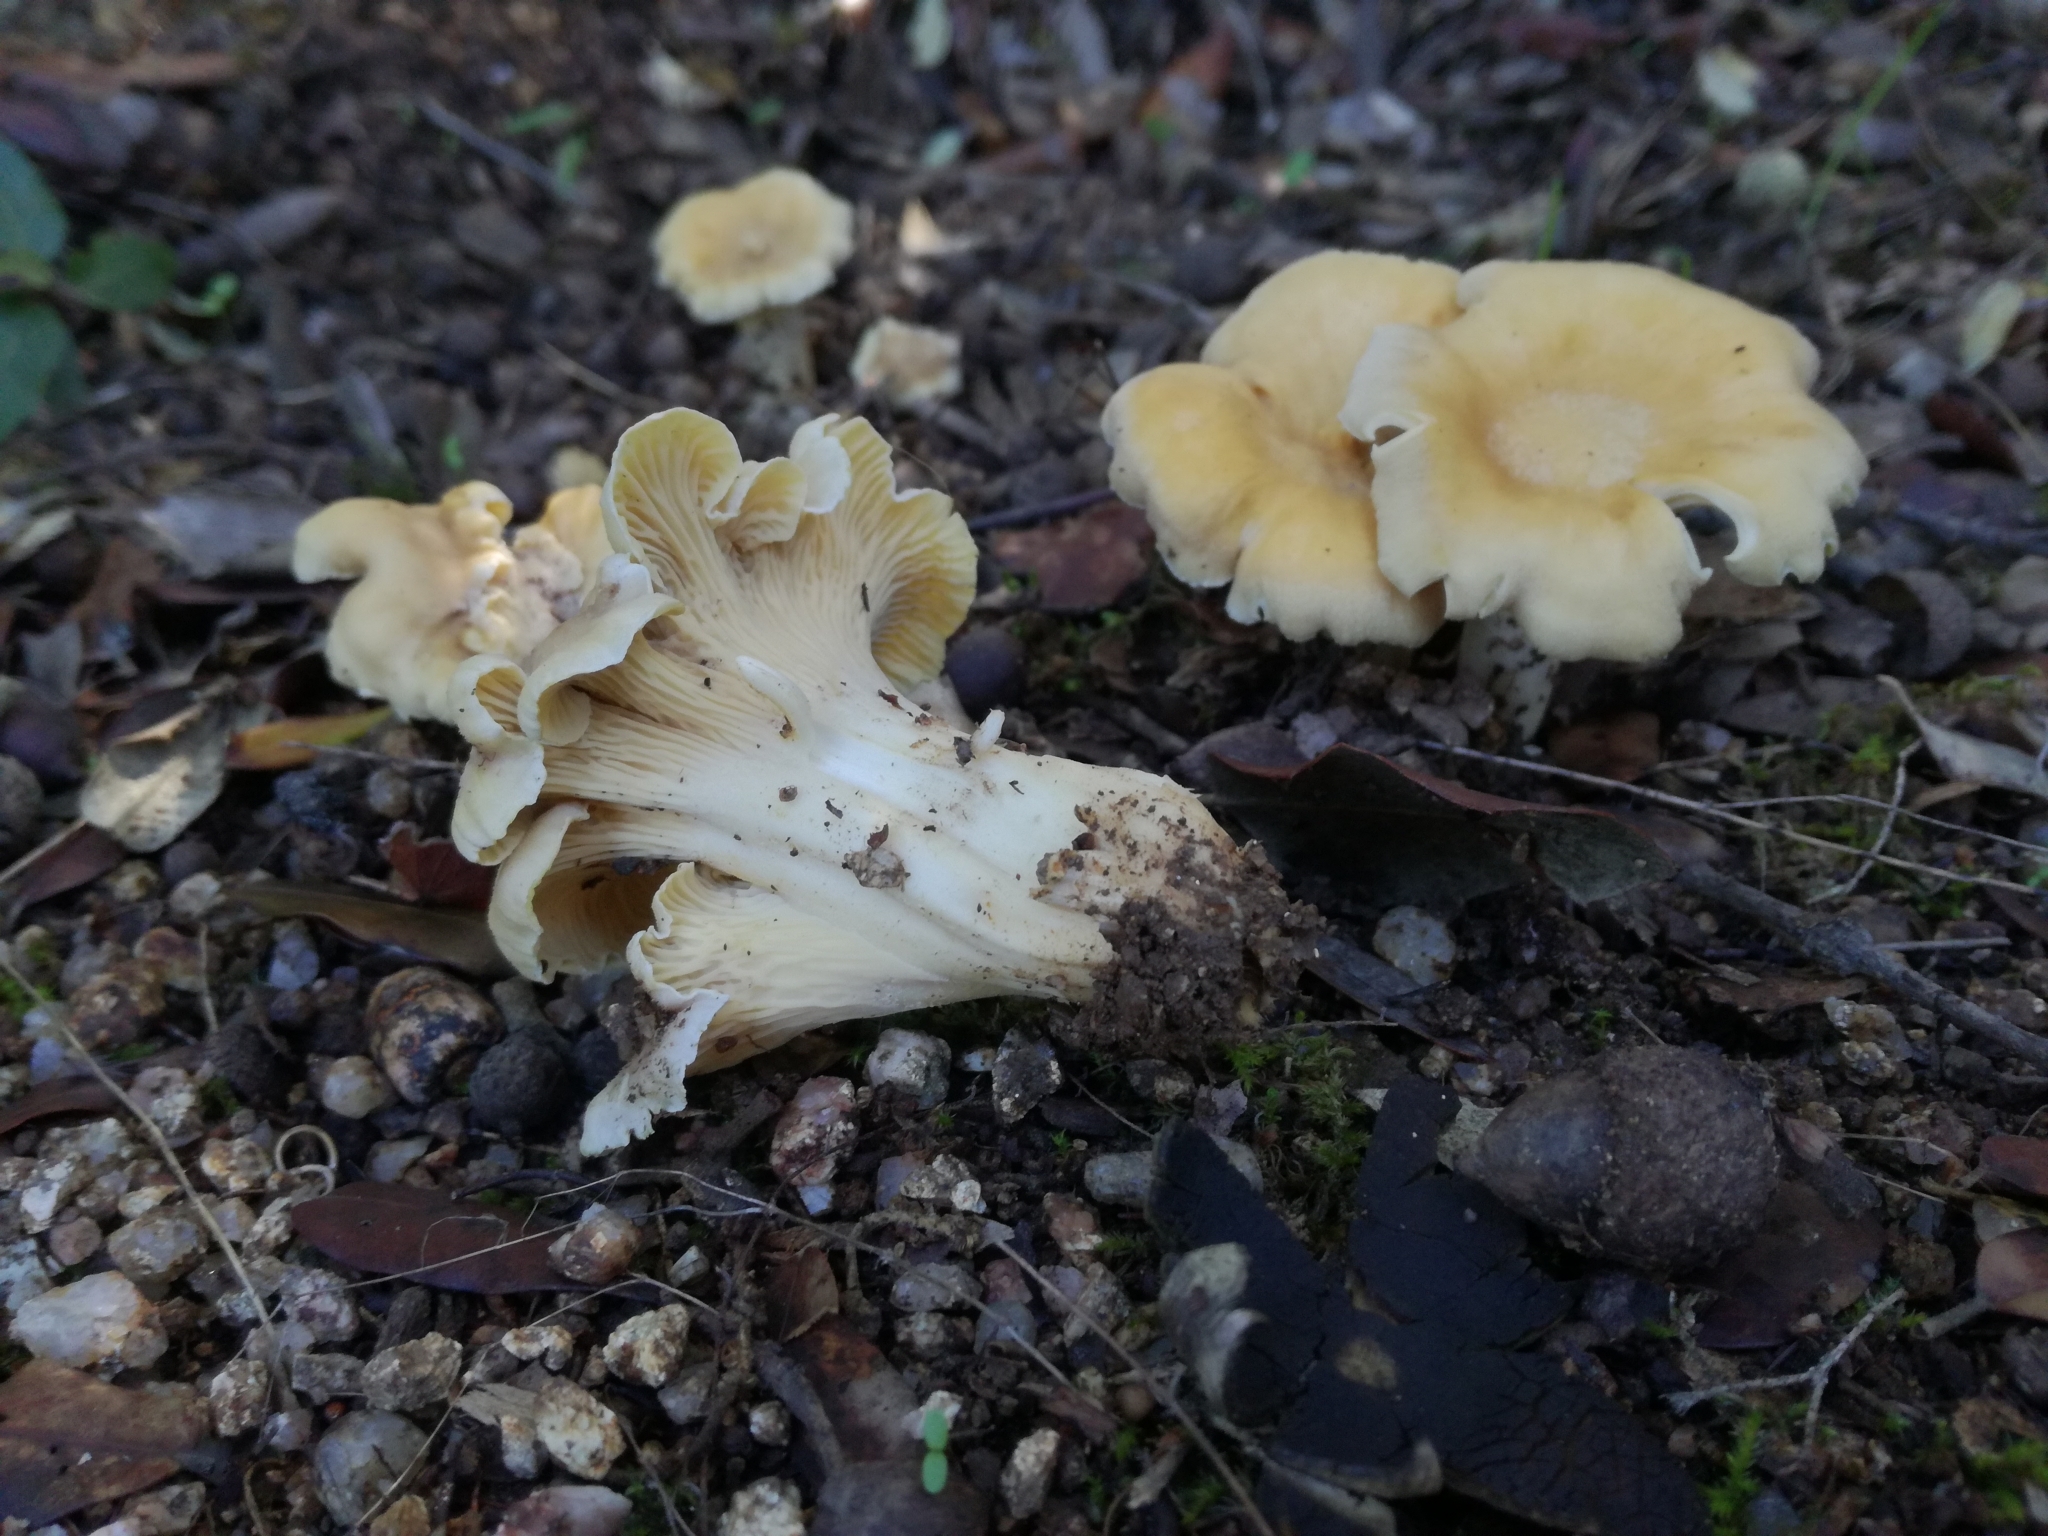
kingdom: Fungi
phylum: Basidiomycota
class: Agaricomycetes
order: Cantharellales
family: Hydnaceae
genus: Cantharellus
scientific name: Cantharellus alborufescens
